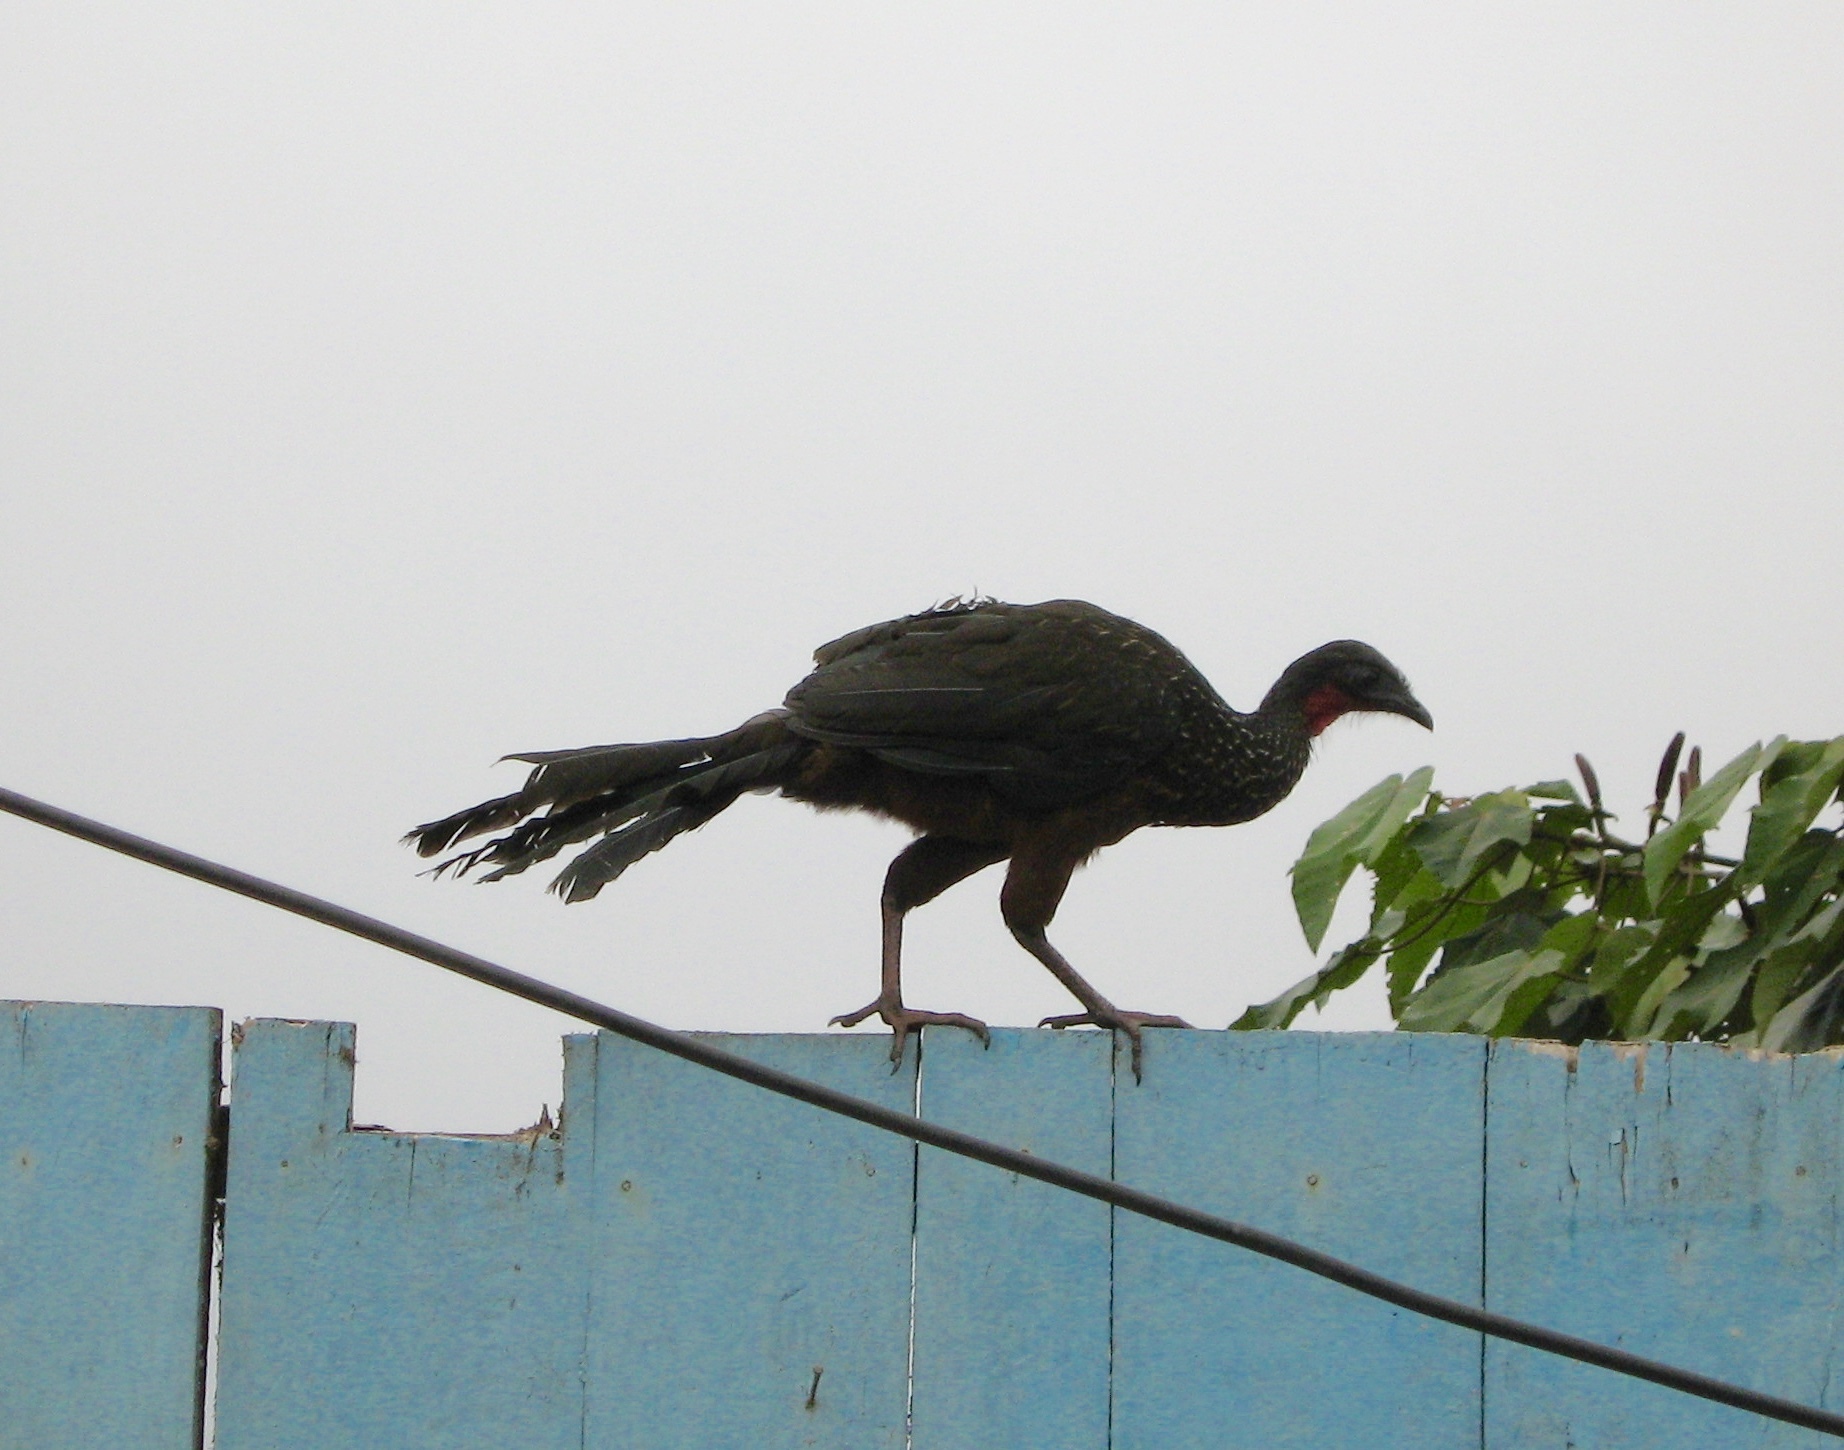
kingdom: Animalia
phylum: Chordata
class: Aves
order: Galliformes
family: Cracidae
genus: Penelope
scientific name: Penelope jacquacu
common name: Spix's guan
